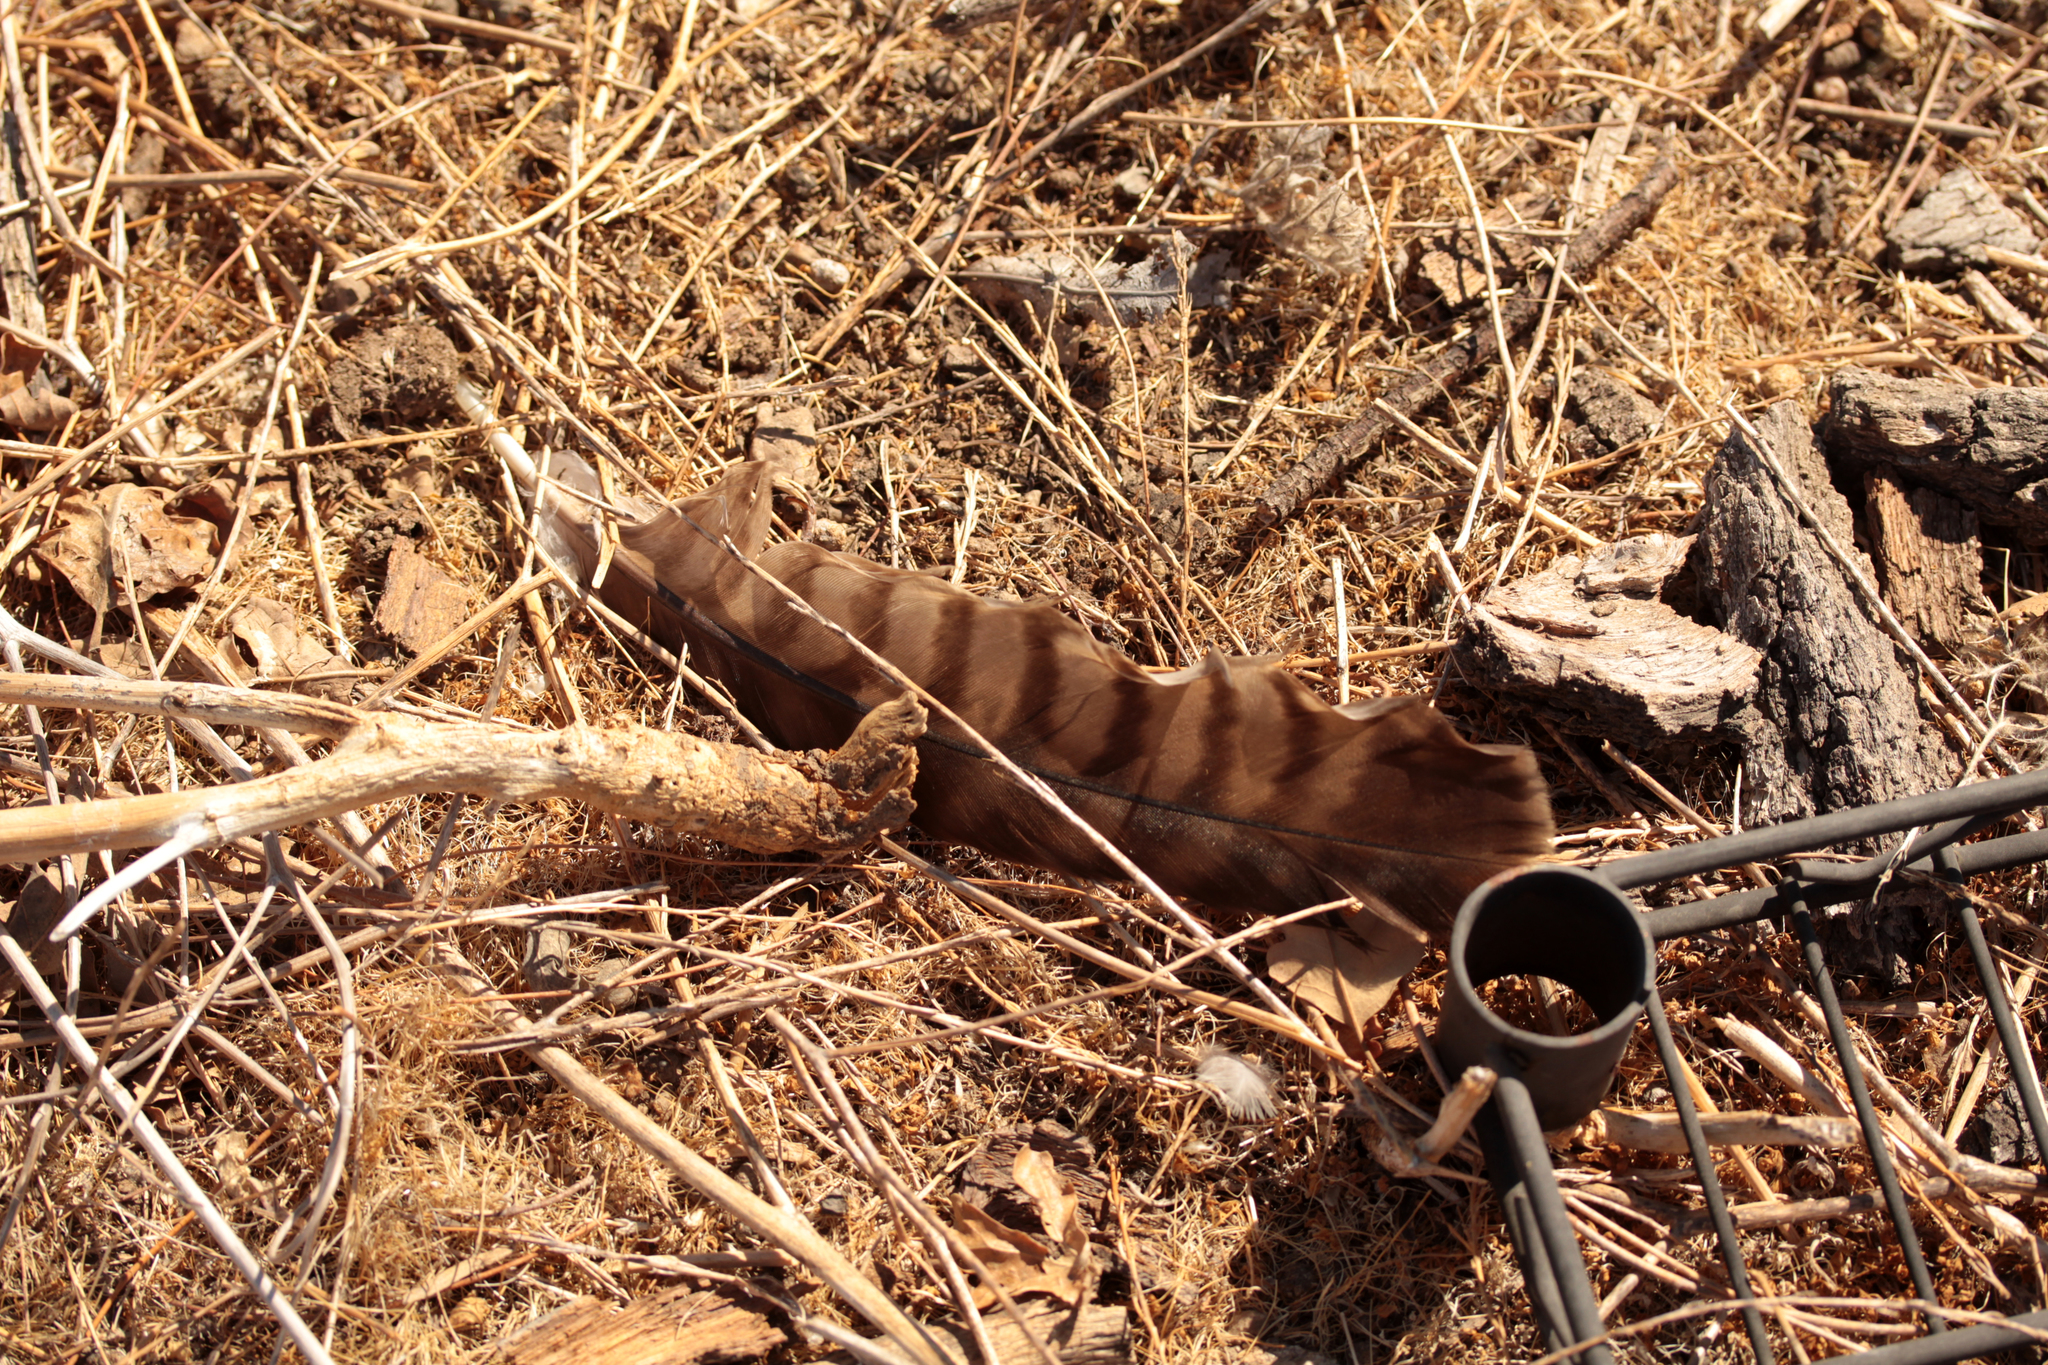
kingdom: Animalia
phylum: Chordata
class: Aves
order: Accipitriformes
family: Accipitridae
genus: Buteo
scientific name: Buteo jamaicensis
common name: Red-tailed hawk
